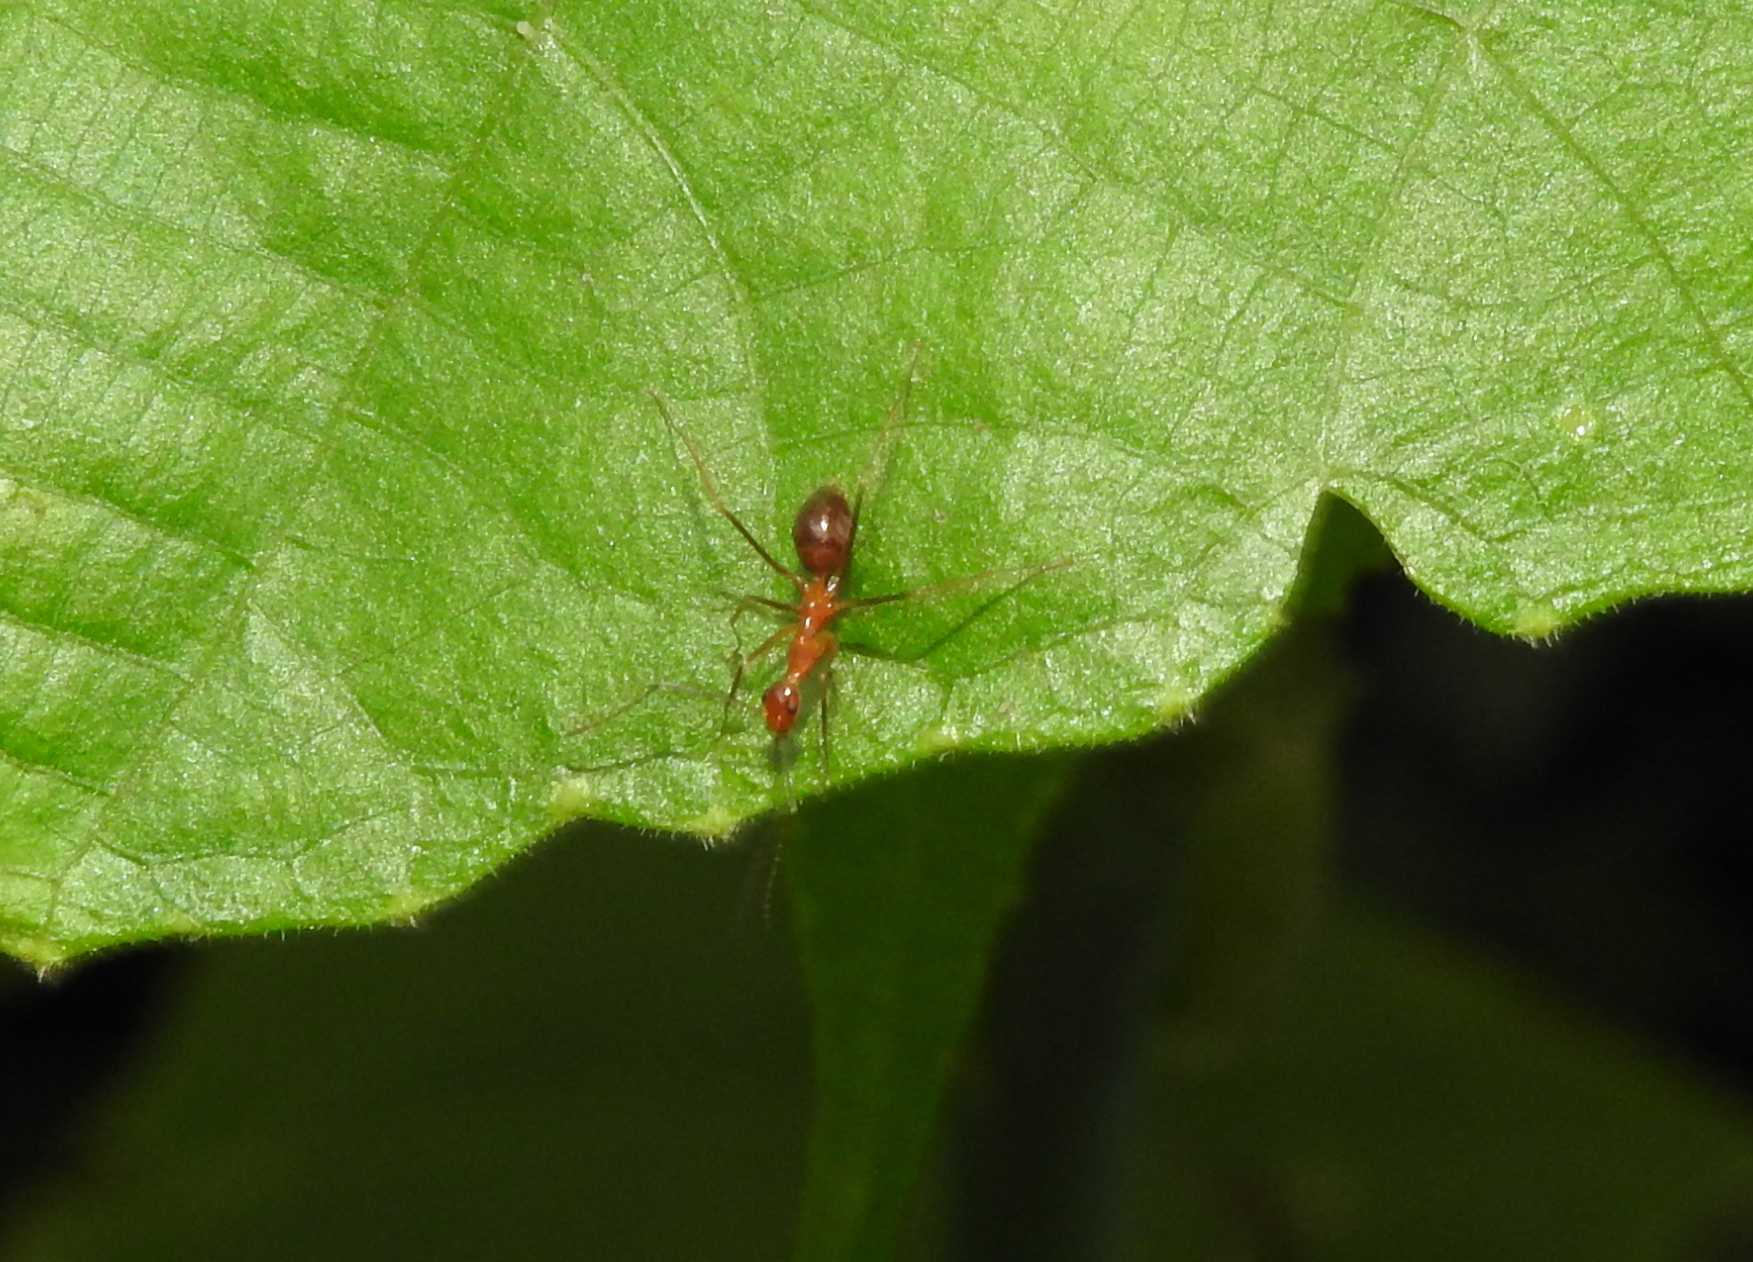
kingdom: Animalia
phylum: Arthropoda
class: Insecta
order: Hymenoptera
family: Formicidae
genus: Anoplolepis
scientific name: Anoplolepis gracilipes
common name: Ant
